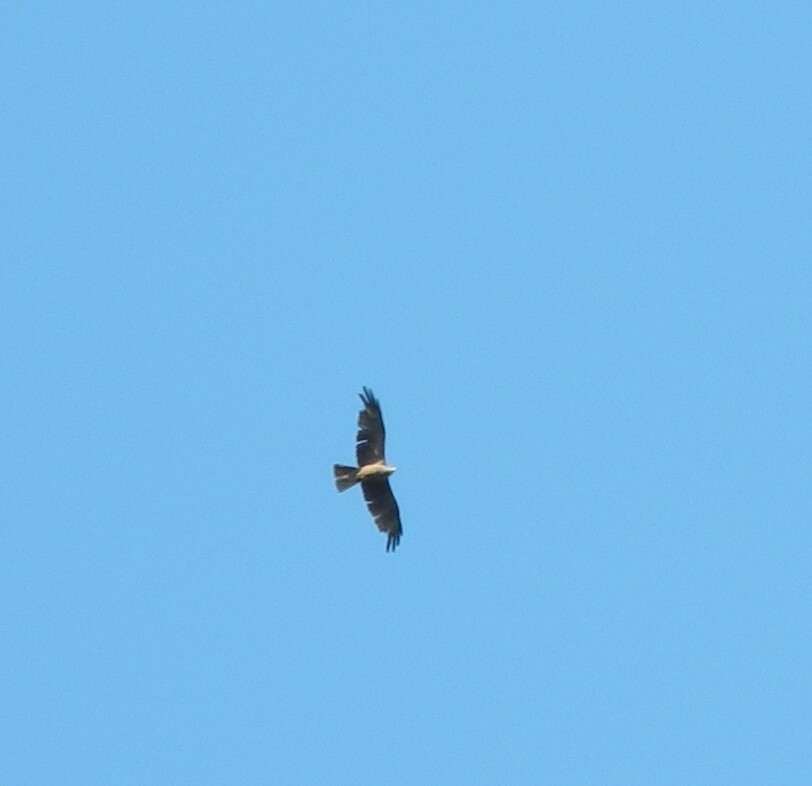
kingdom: Animalia
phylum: Chordata
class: Aves
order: Accipitriformes
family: Accipitridae
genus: Milvus
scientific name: Milvus migrans
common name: Black kite
